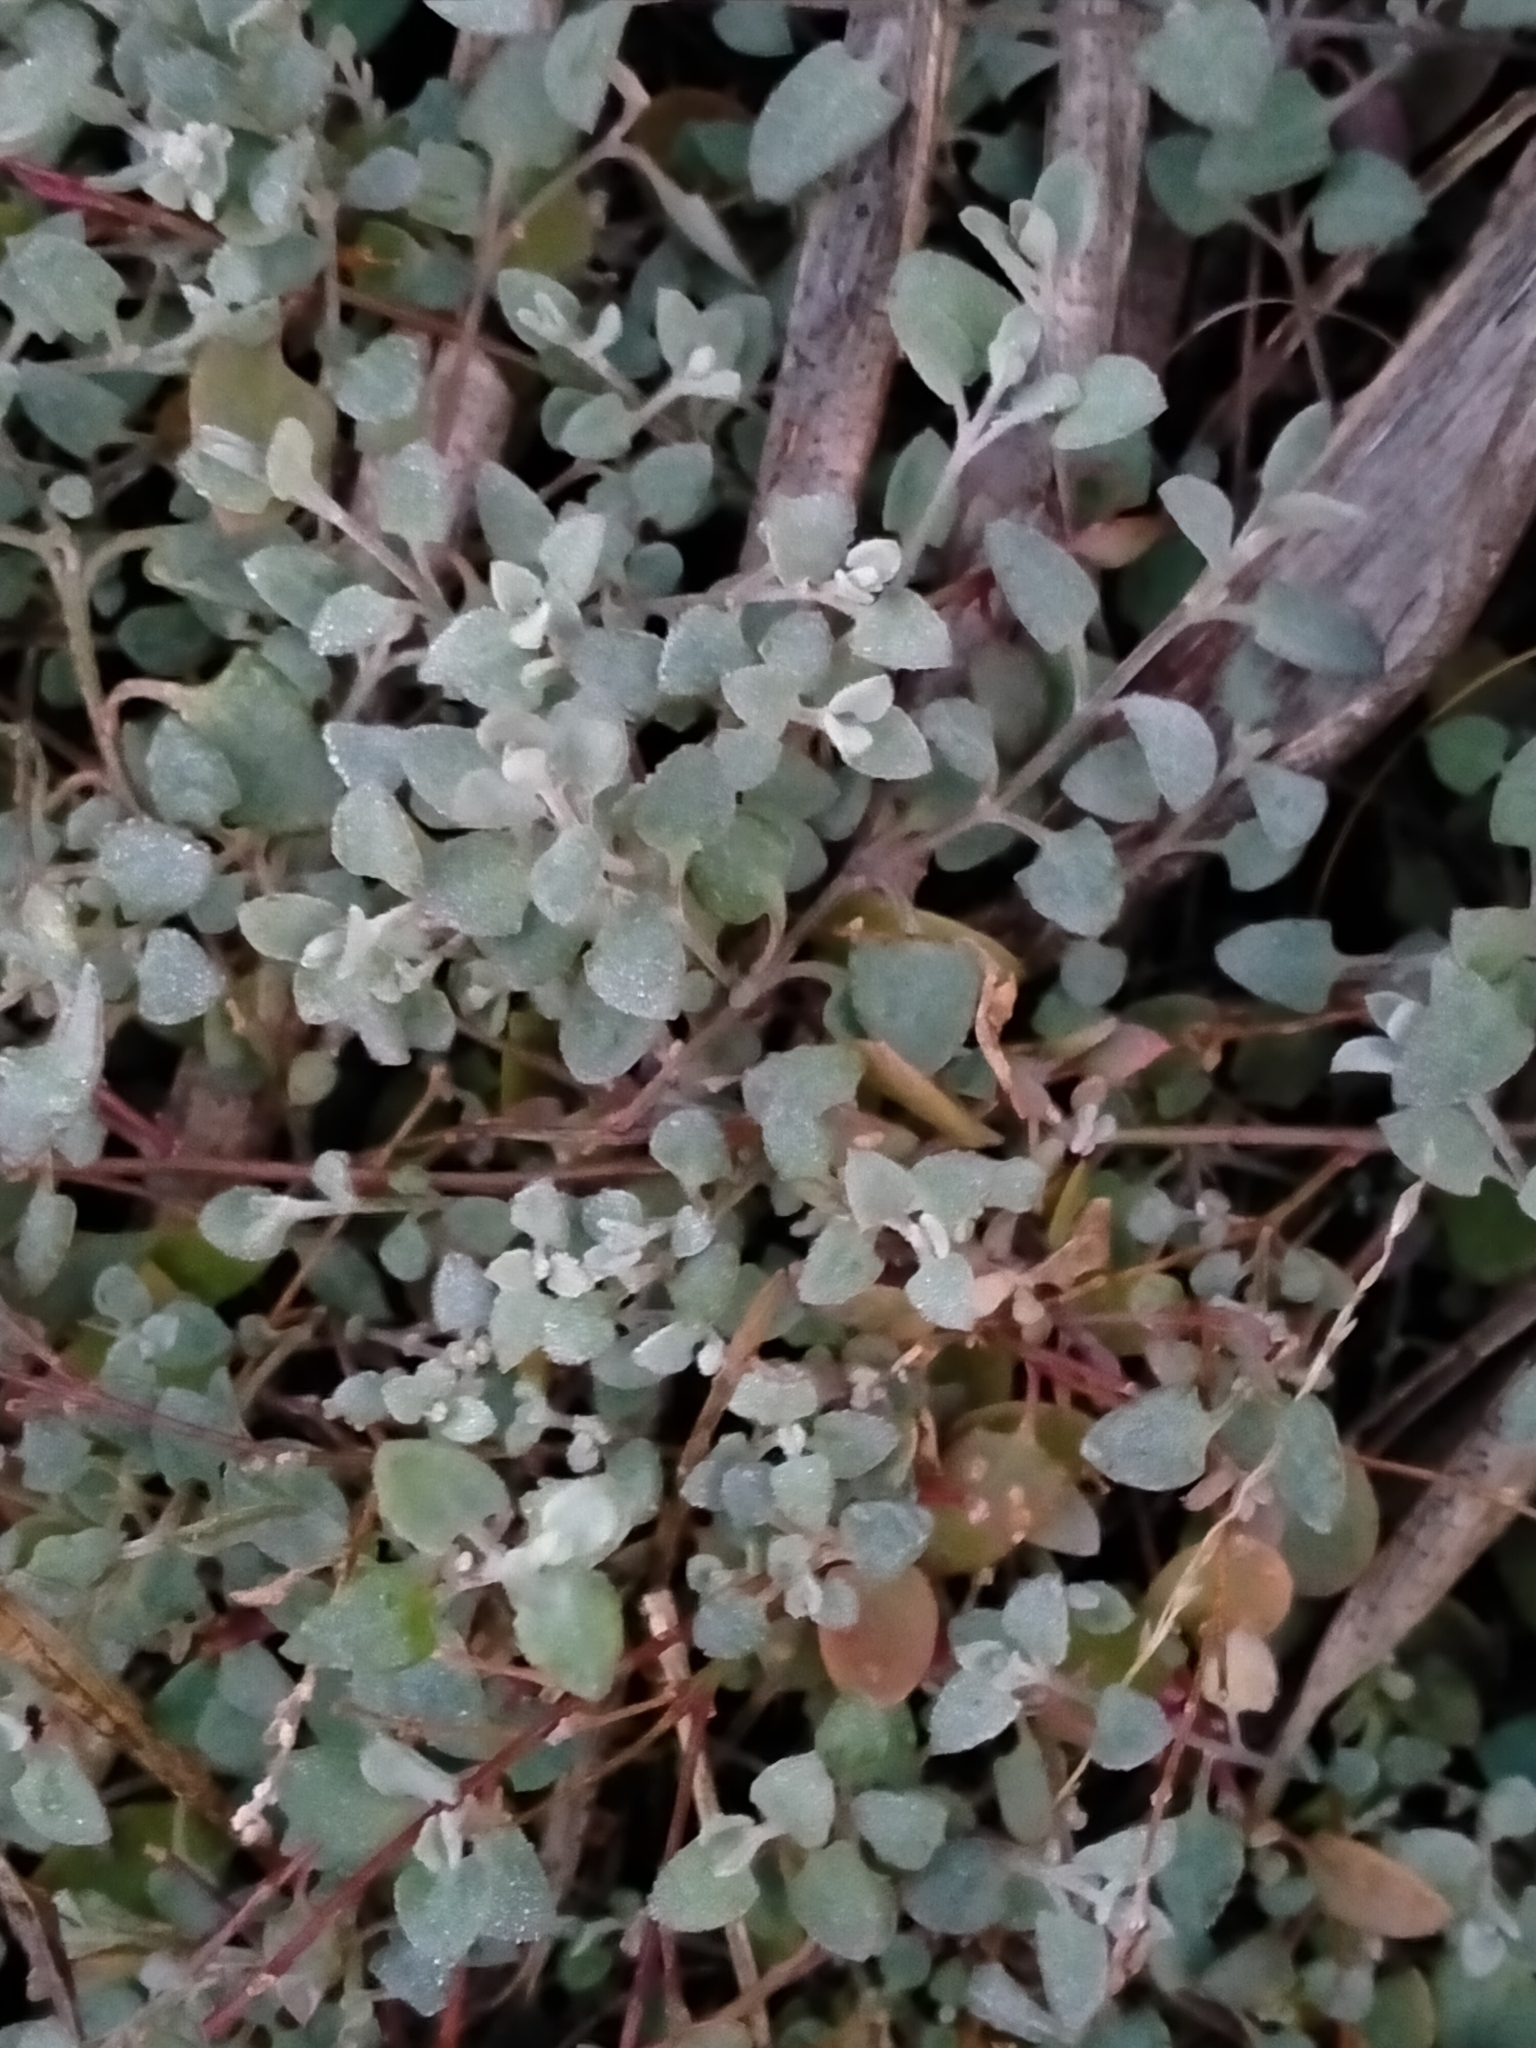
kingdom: Plantae
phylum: Tracheophyta
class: Magnoliopsida
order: Caryophyllales
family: Amaranthaceae
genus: Chenopodium
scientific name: Chenopodium triandrum
